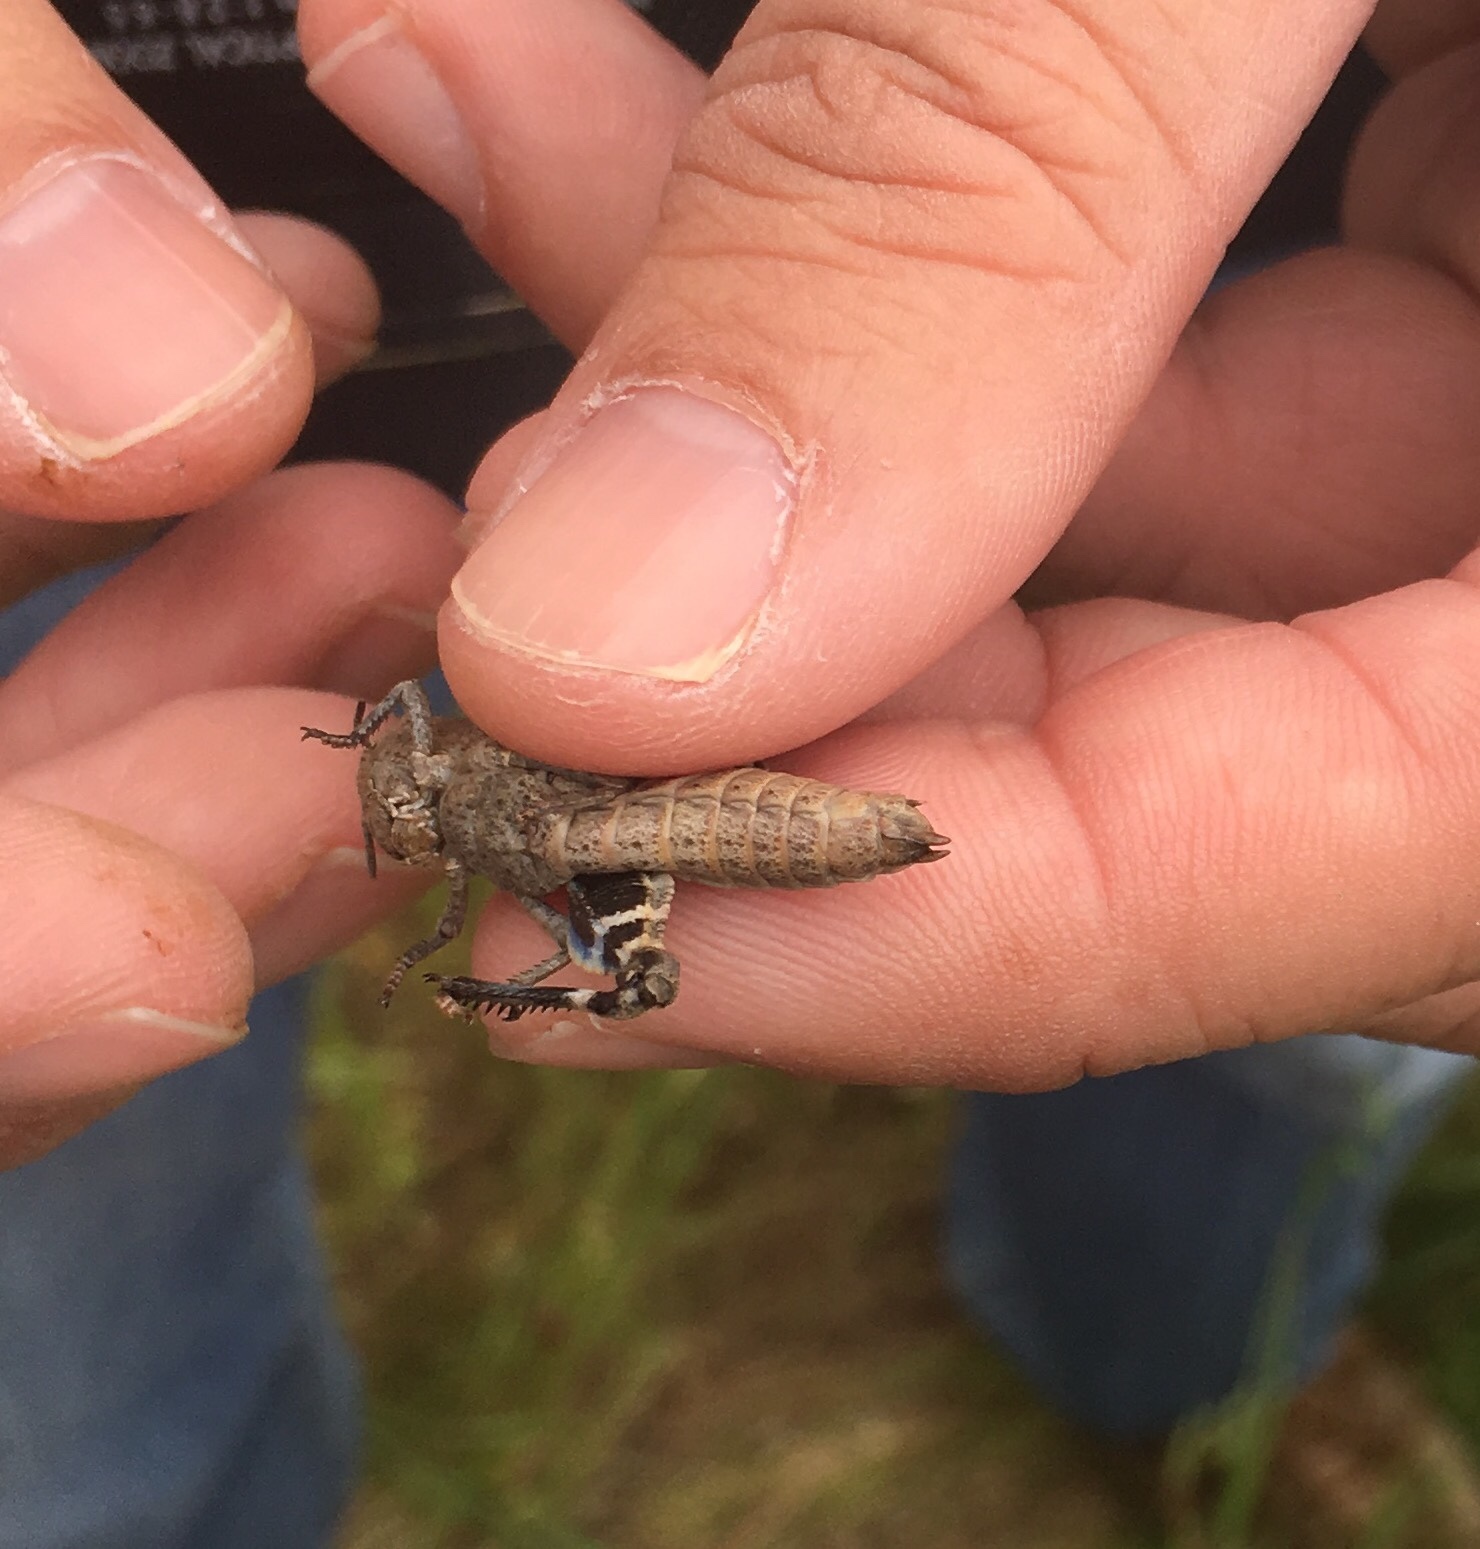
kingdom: Animalia
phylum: Arthropoda
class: Insecta
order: Orthoptera
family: Acrididae
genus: Agymnastus
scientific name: Agymnastus ingens
